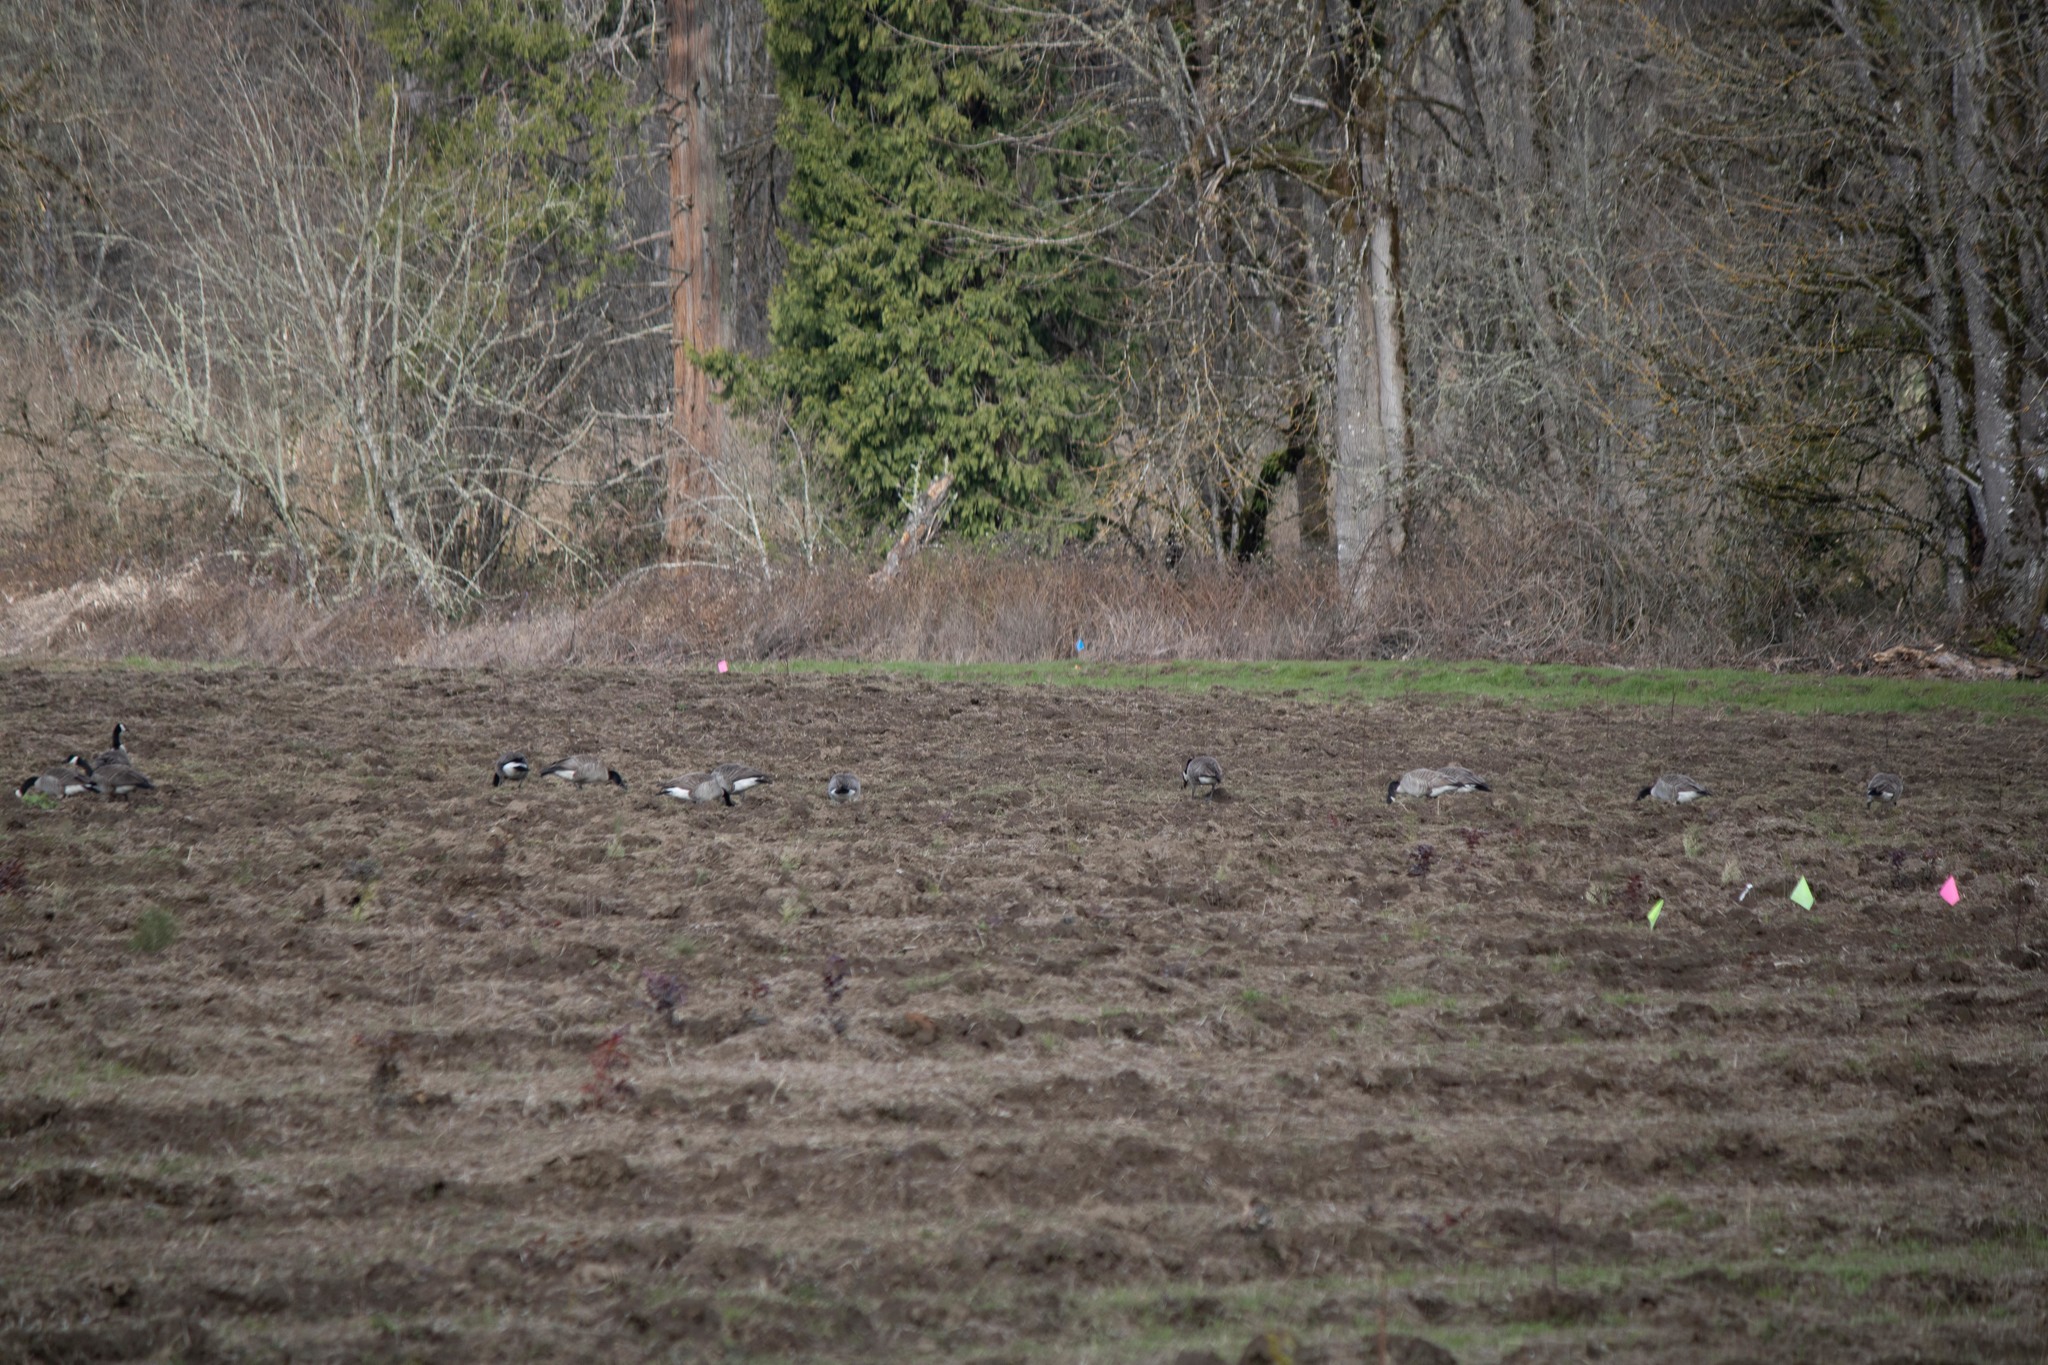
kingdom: Animalia
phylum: Chordata
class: Aves
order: Anseriformes
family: Anatidae
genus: Branta
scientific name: Branta canadensis
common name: Canada goose
